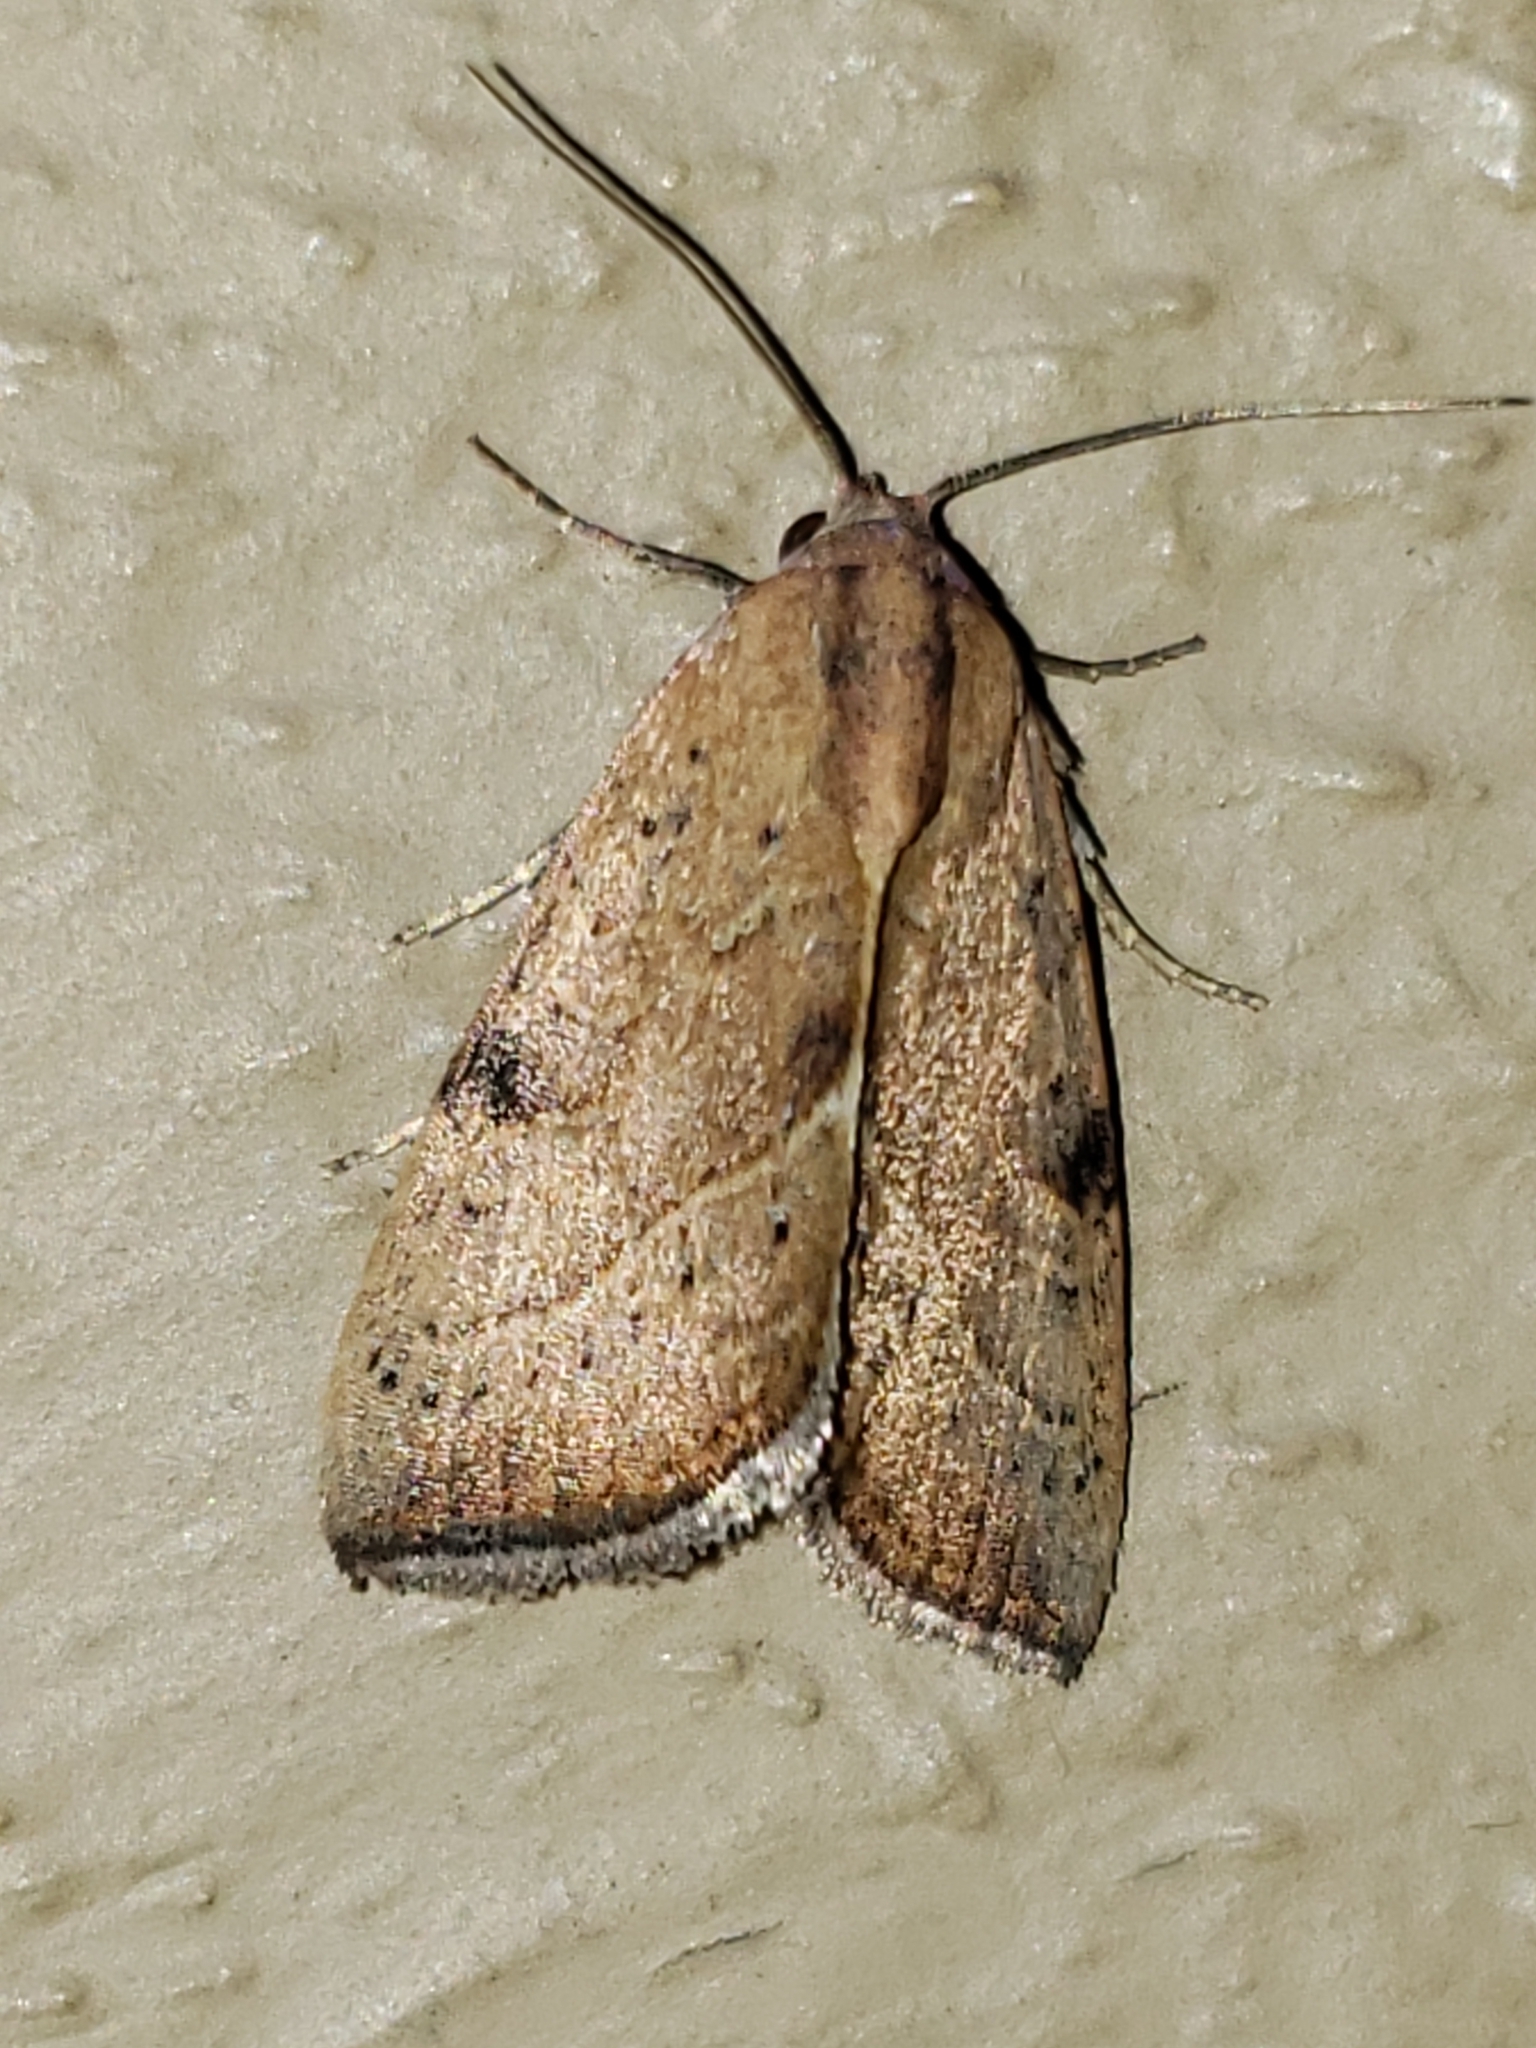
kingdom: Animalia
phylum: Arthropoda
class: Insecta
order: Lepidoptera
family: Noctuidae
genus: Galgula
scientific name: Galgula partita
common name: Wedgeling
